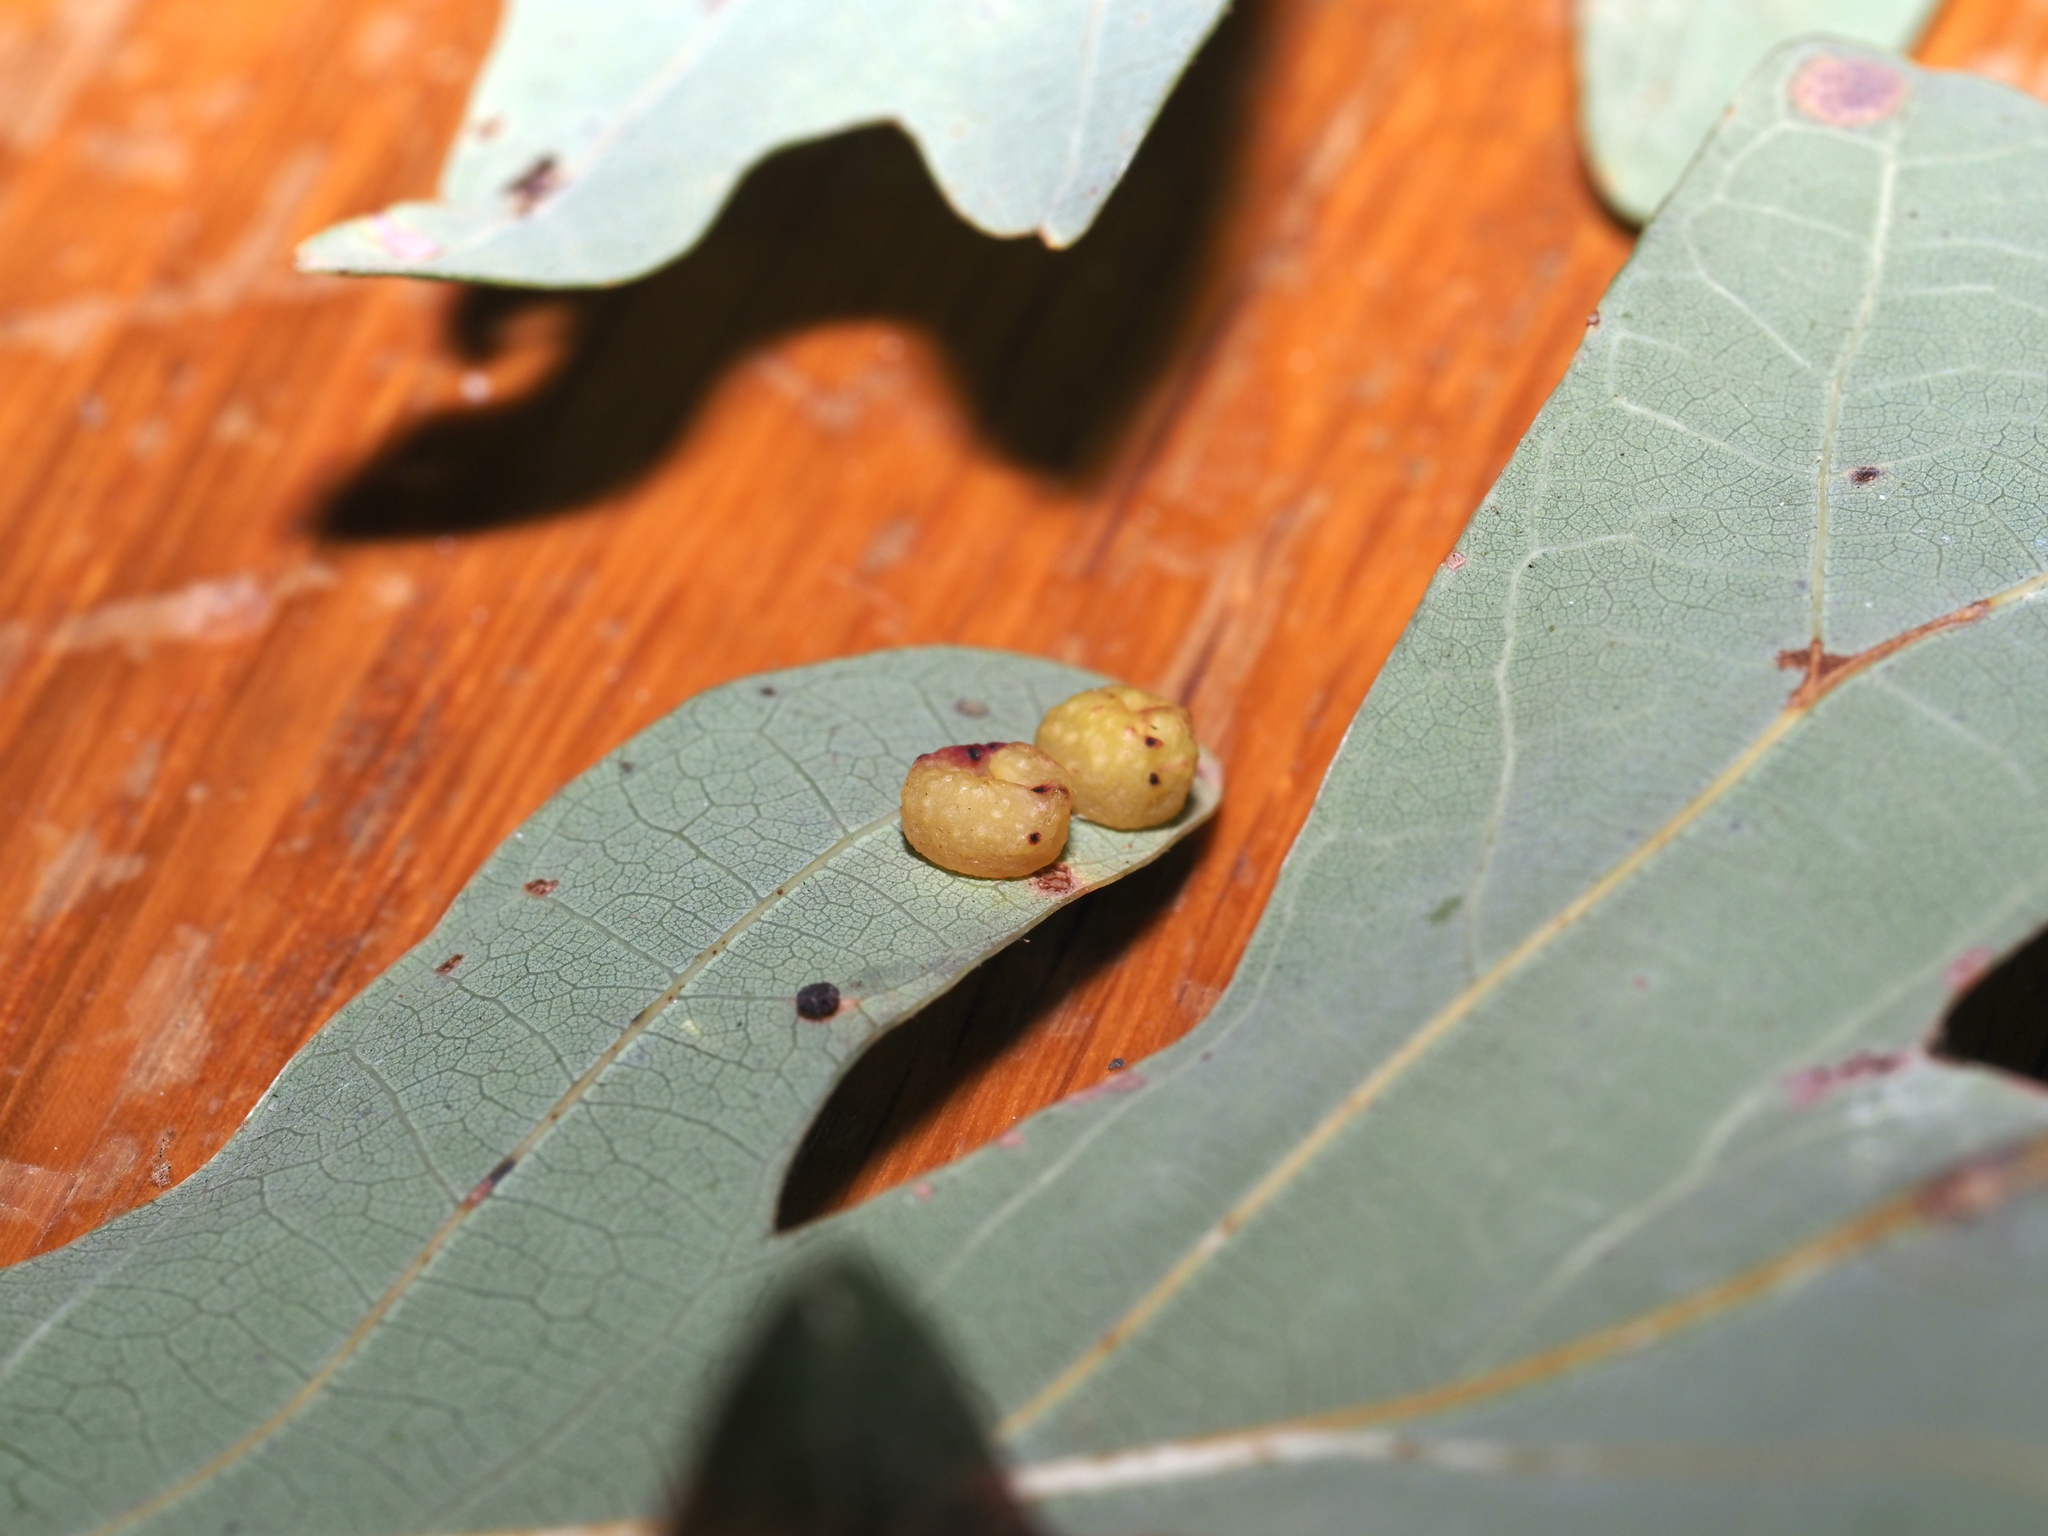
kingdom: Animalia
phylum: Arthropoda
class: Insecta
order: Hymenoptera
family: Cynipidae
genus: Andricus
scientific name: Andricus
